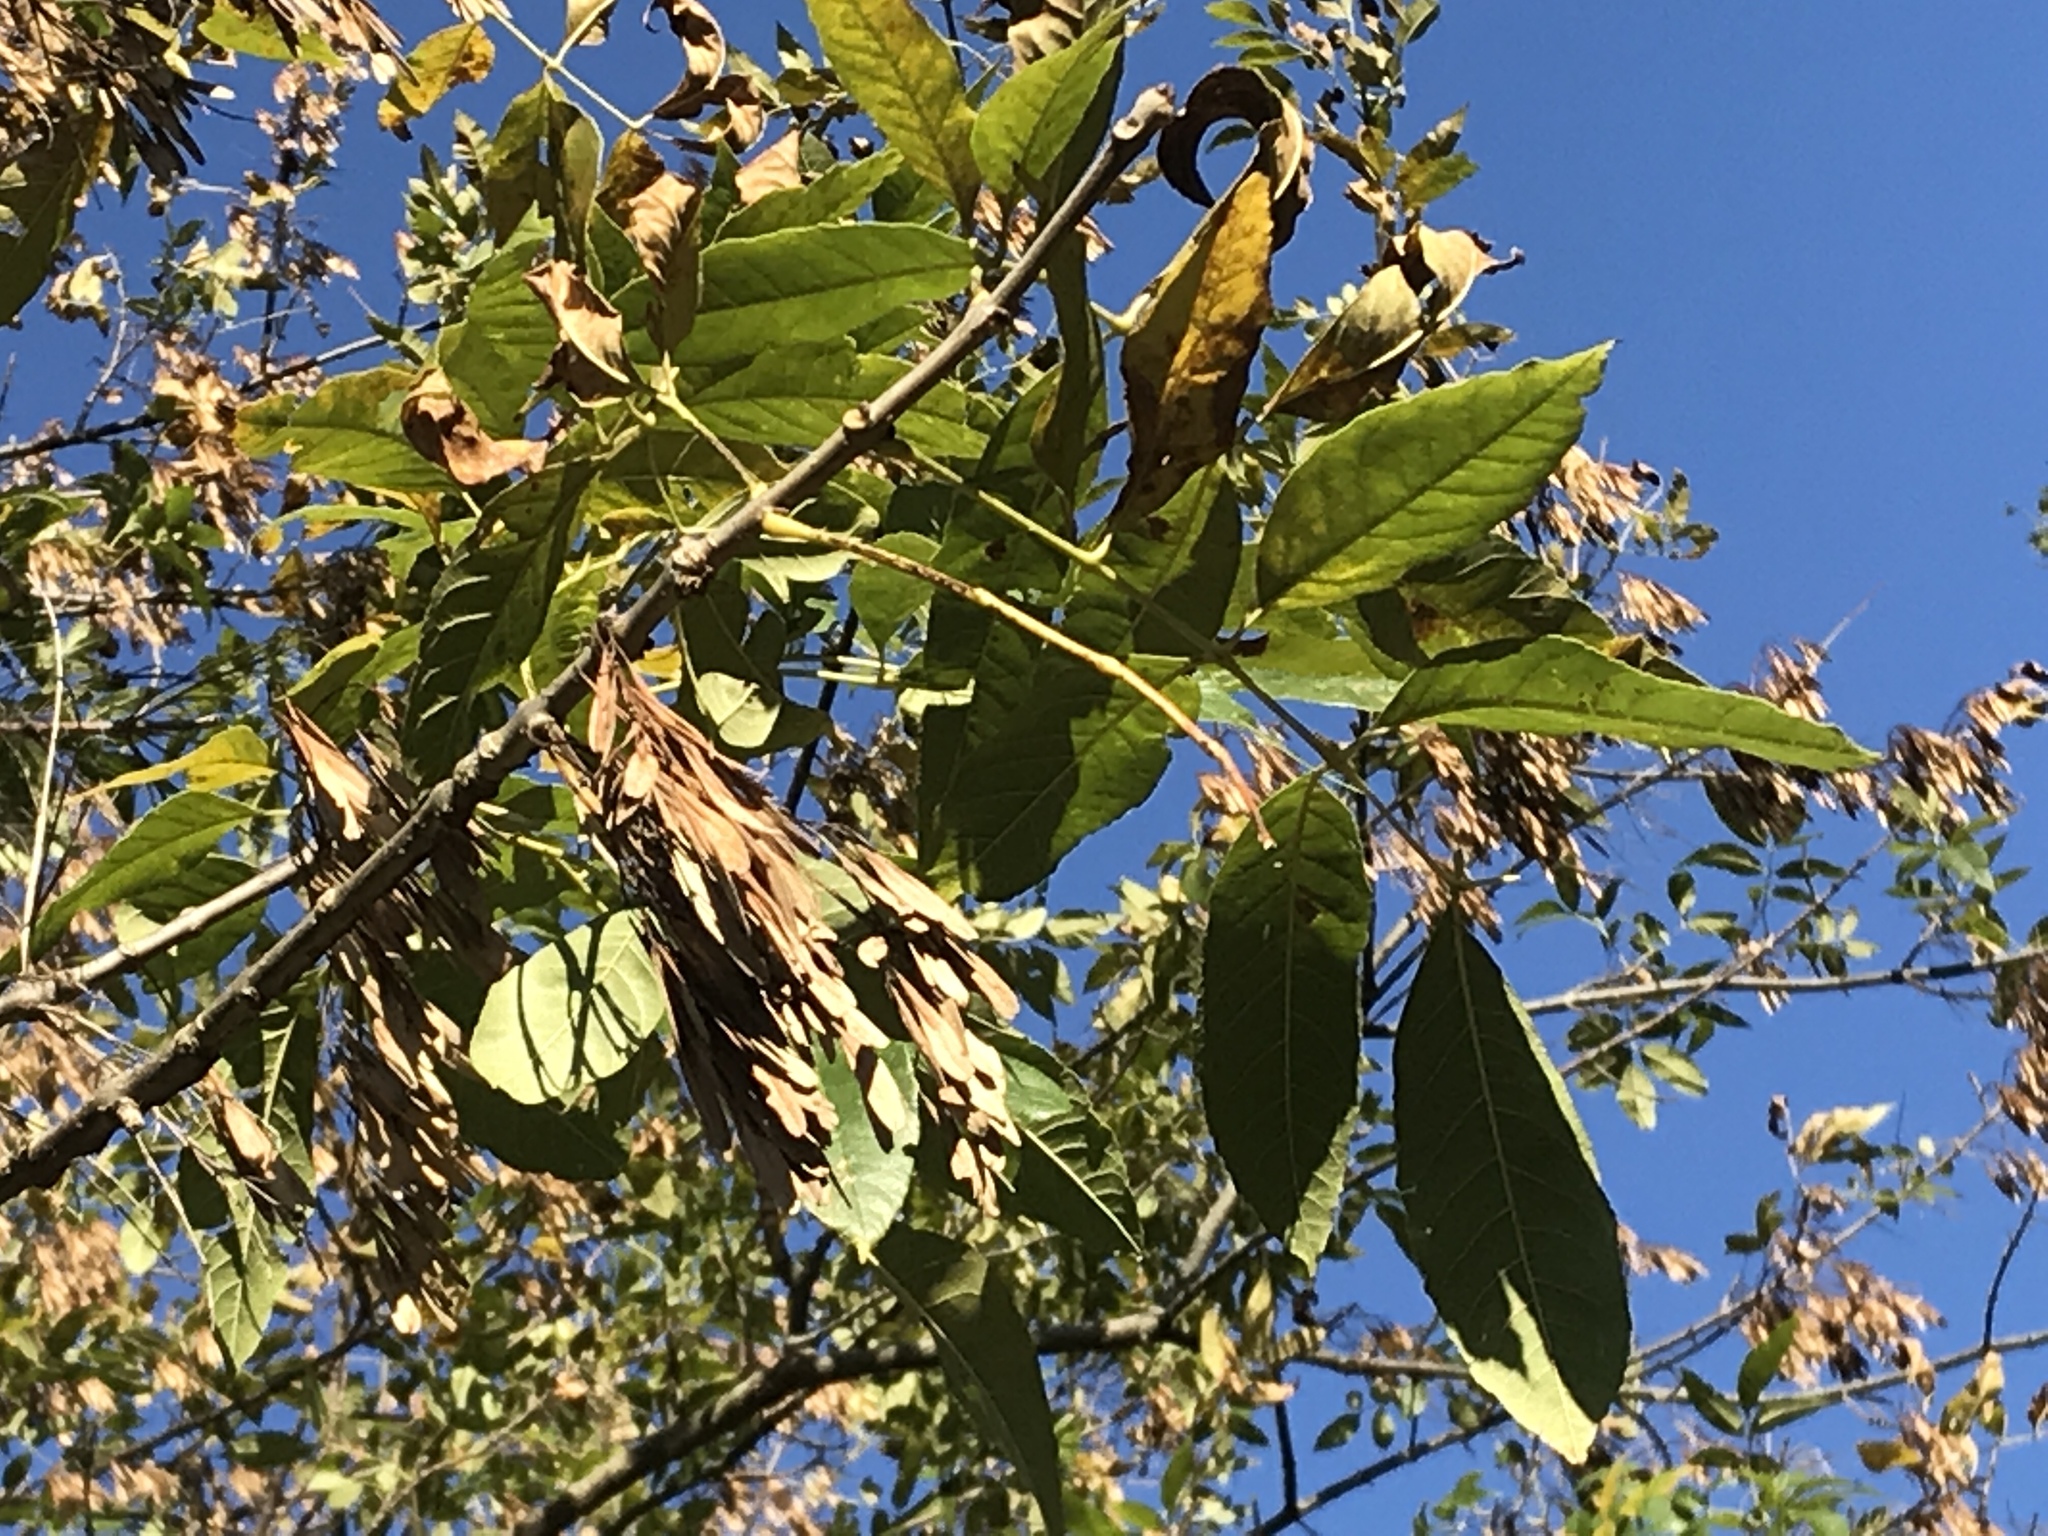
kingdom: Plantae
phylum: Tracheophyta
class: Magnoliopsida
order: Lamiales
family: Oleaceae
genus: Fraxinus
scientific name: Fraxinus americana
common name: White ash
